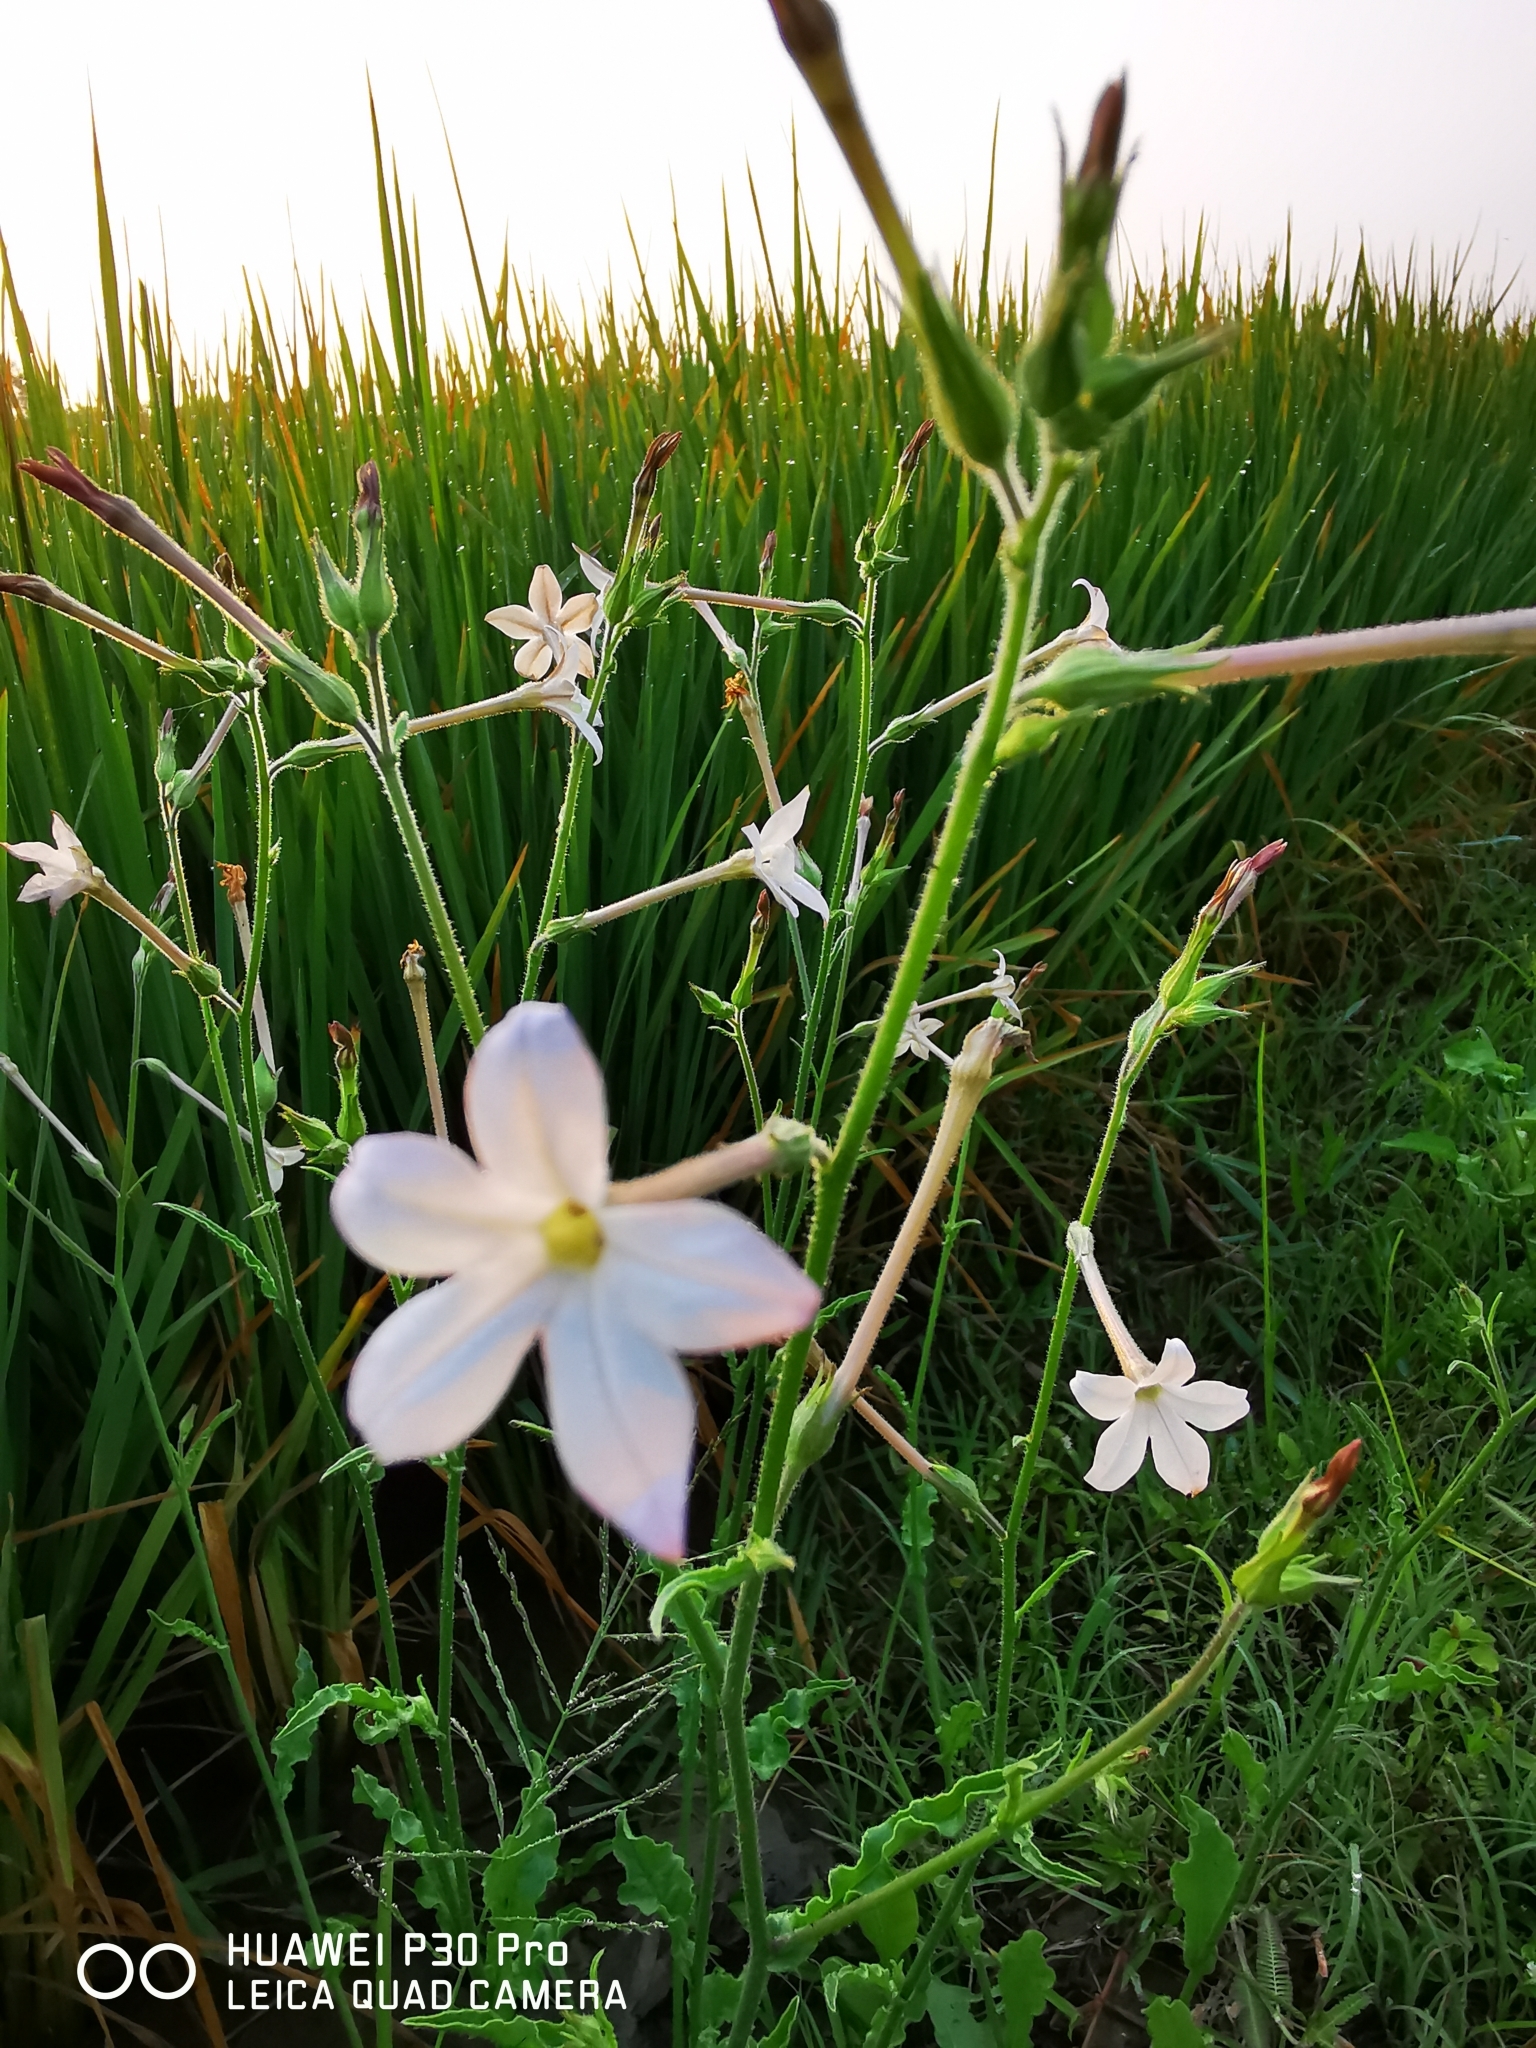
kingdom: Plantae
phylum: Tracheophyta
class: Magnoliopsida
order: Solanales
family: Solanaceae
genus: Nicotiana
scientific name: Nicotiana plumbaginifolia
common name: Tex-mex tobacco
